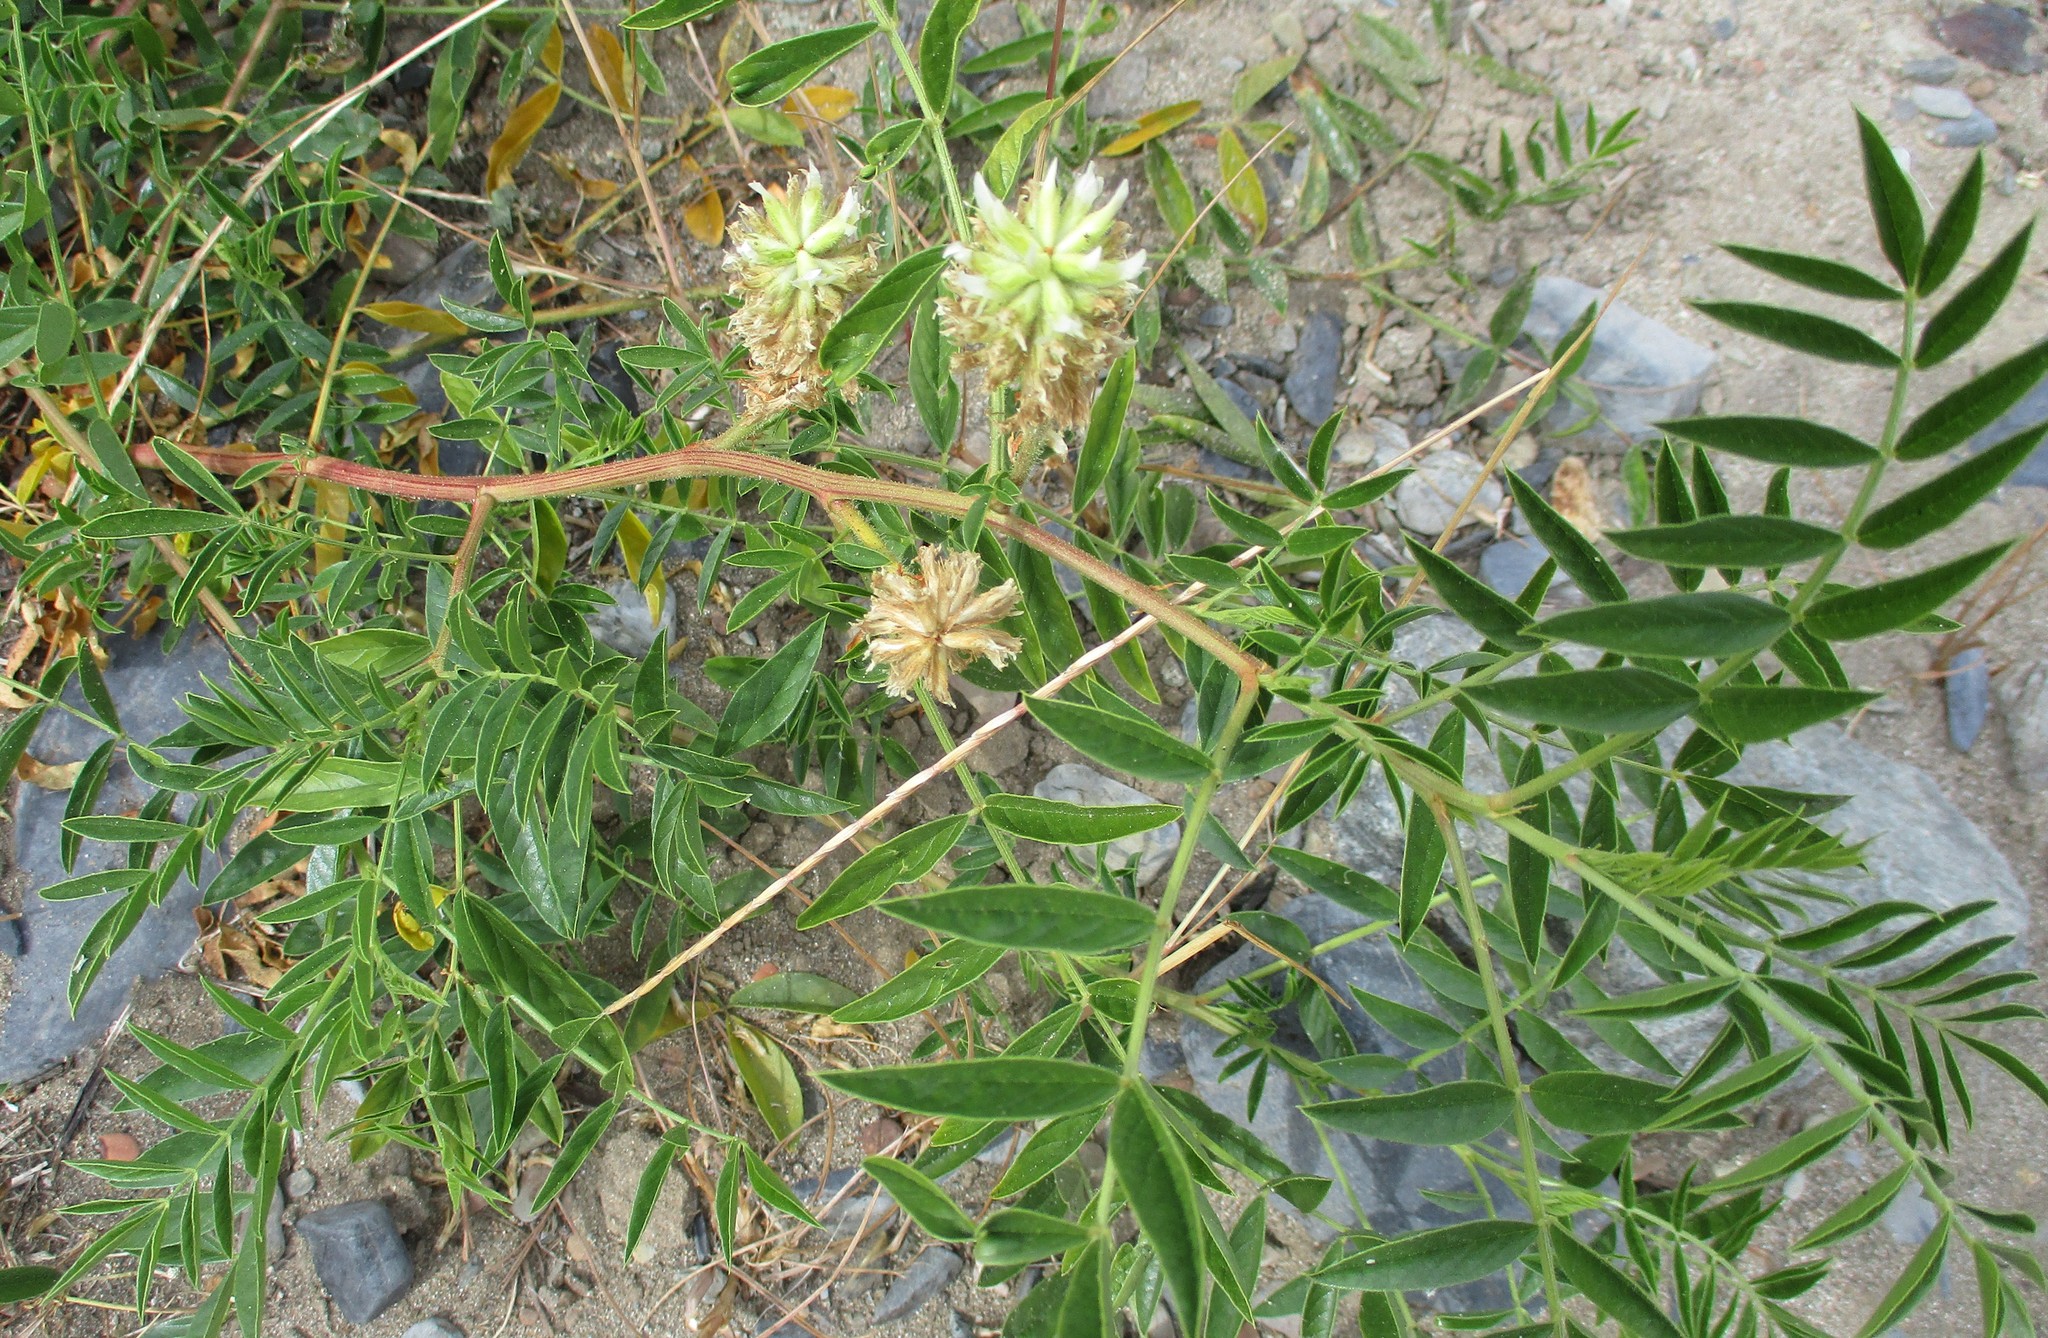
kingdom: Plantae
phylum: Tracheophyta
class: Magnoliopsida
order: Fabales
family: Fabaceae
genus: Glycyrrhiza
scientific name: Glycyrrhiza lepidota
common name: American liquorice
